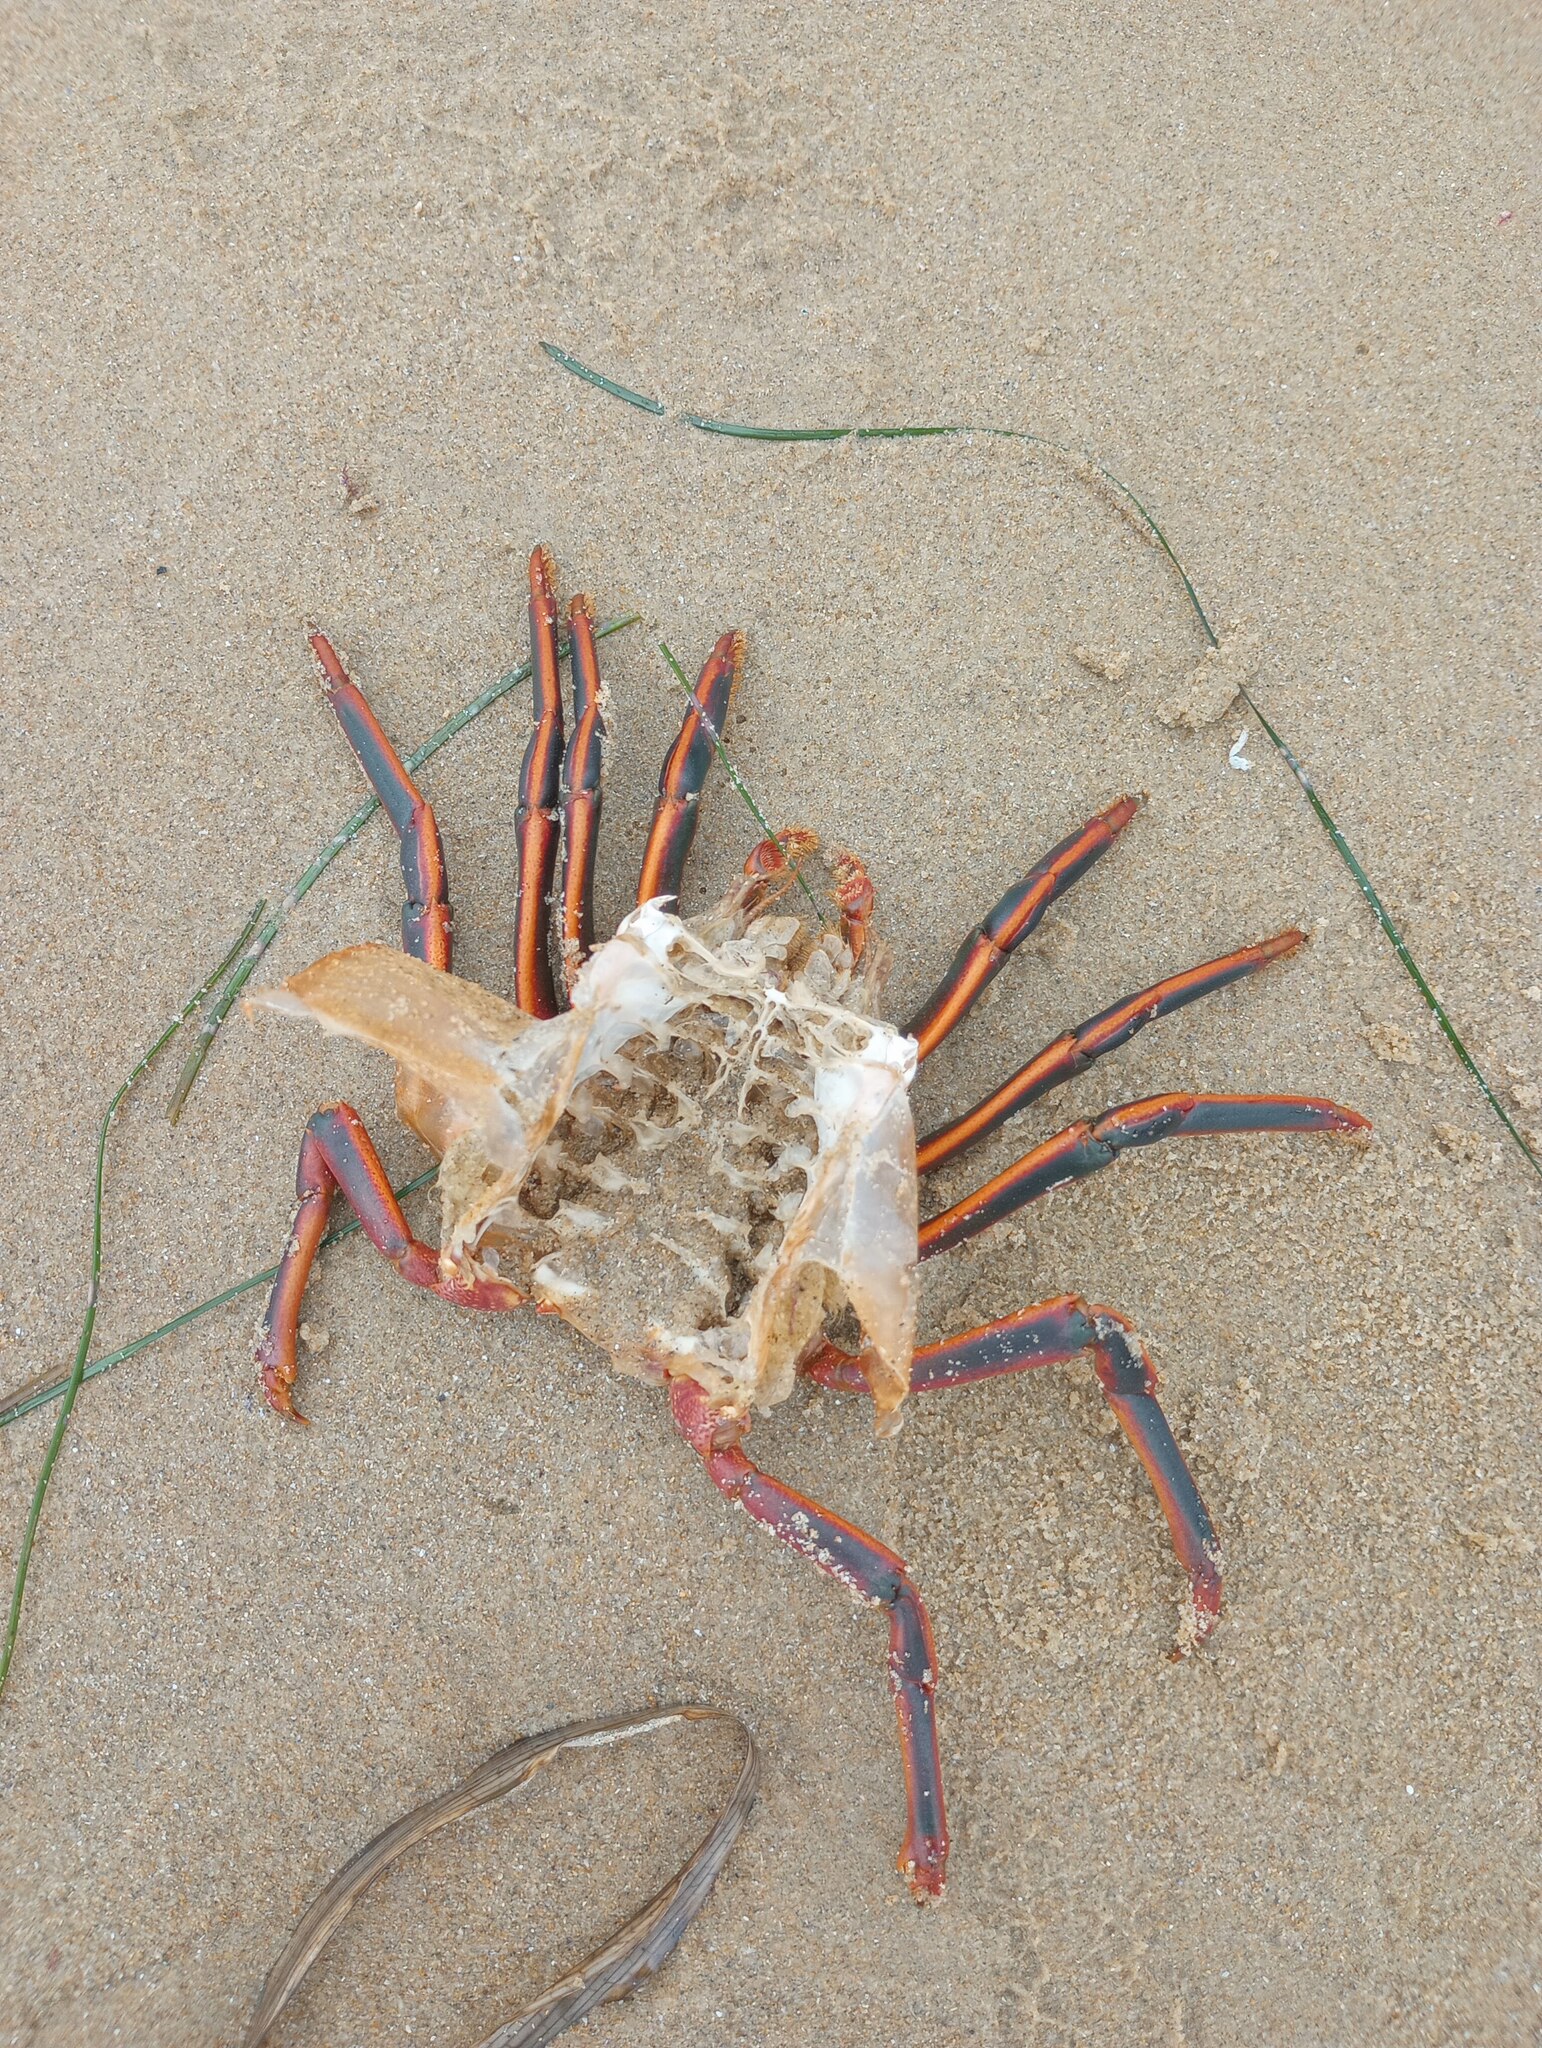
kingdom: Animalia
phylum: Arthropoda
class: Malacostraca
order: Decapoda
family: Palinuridae
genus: Panulirus
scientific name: Panulirus interruptus
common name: California spiny lobster
